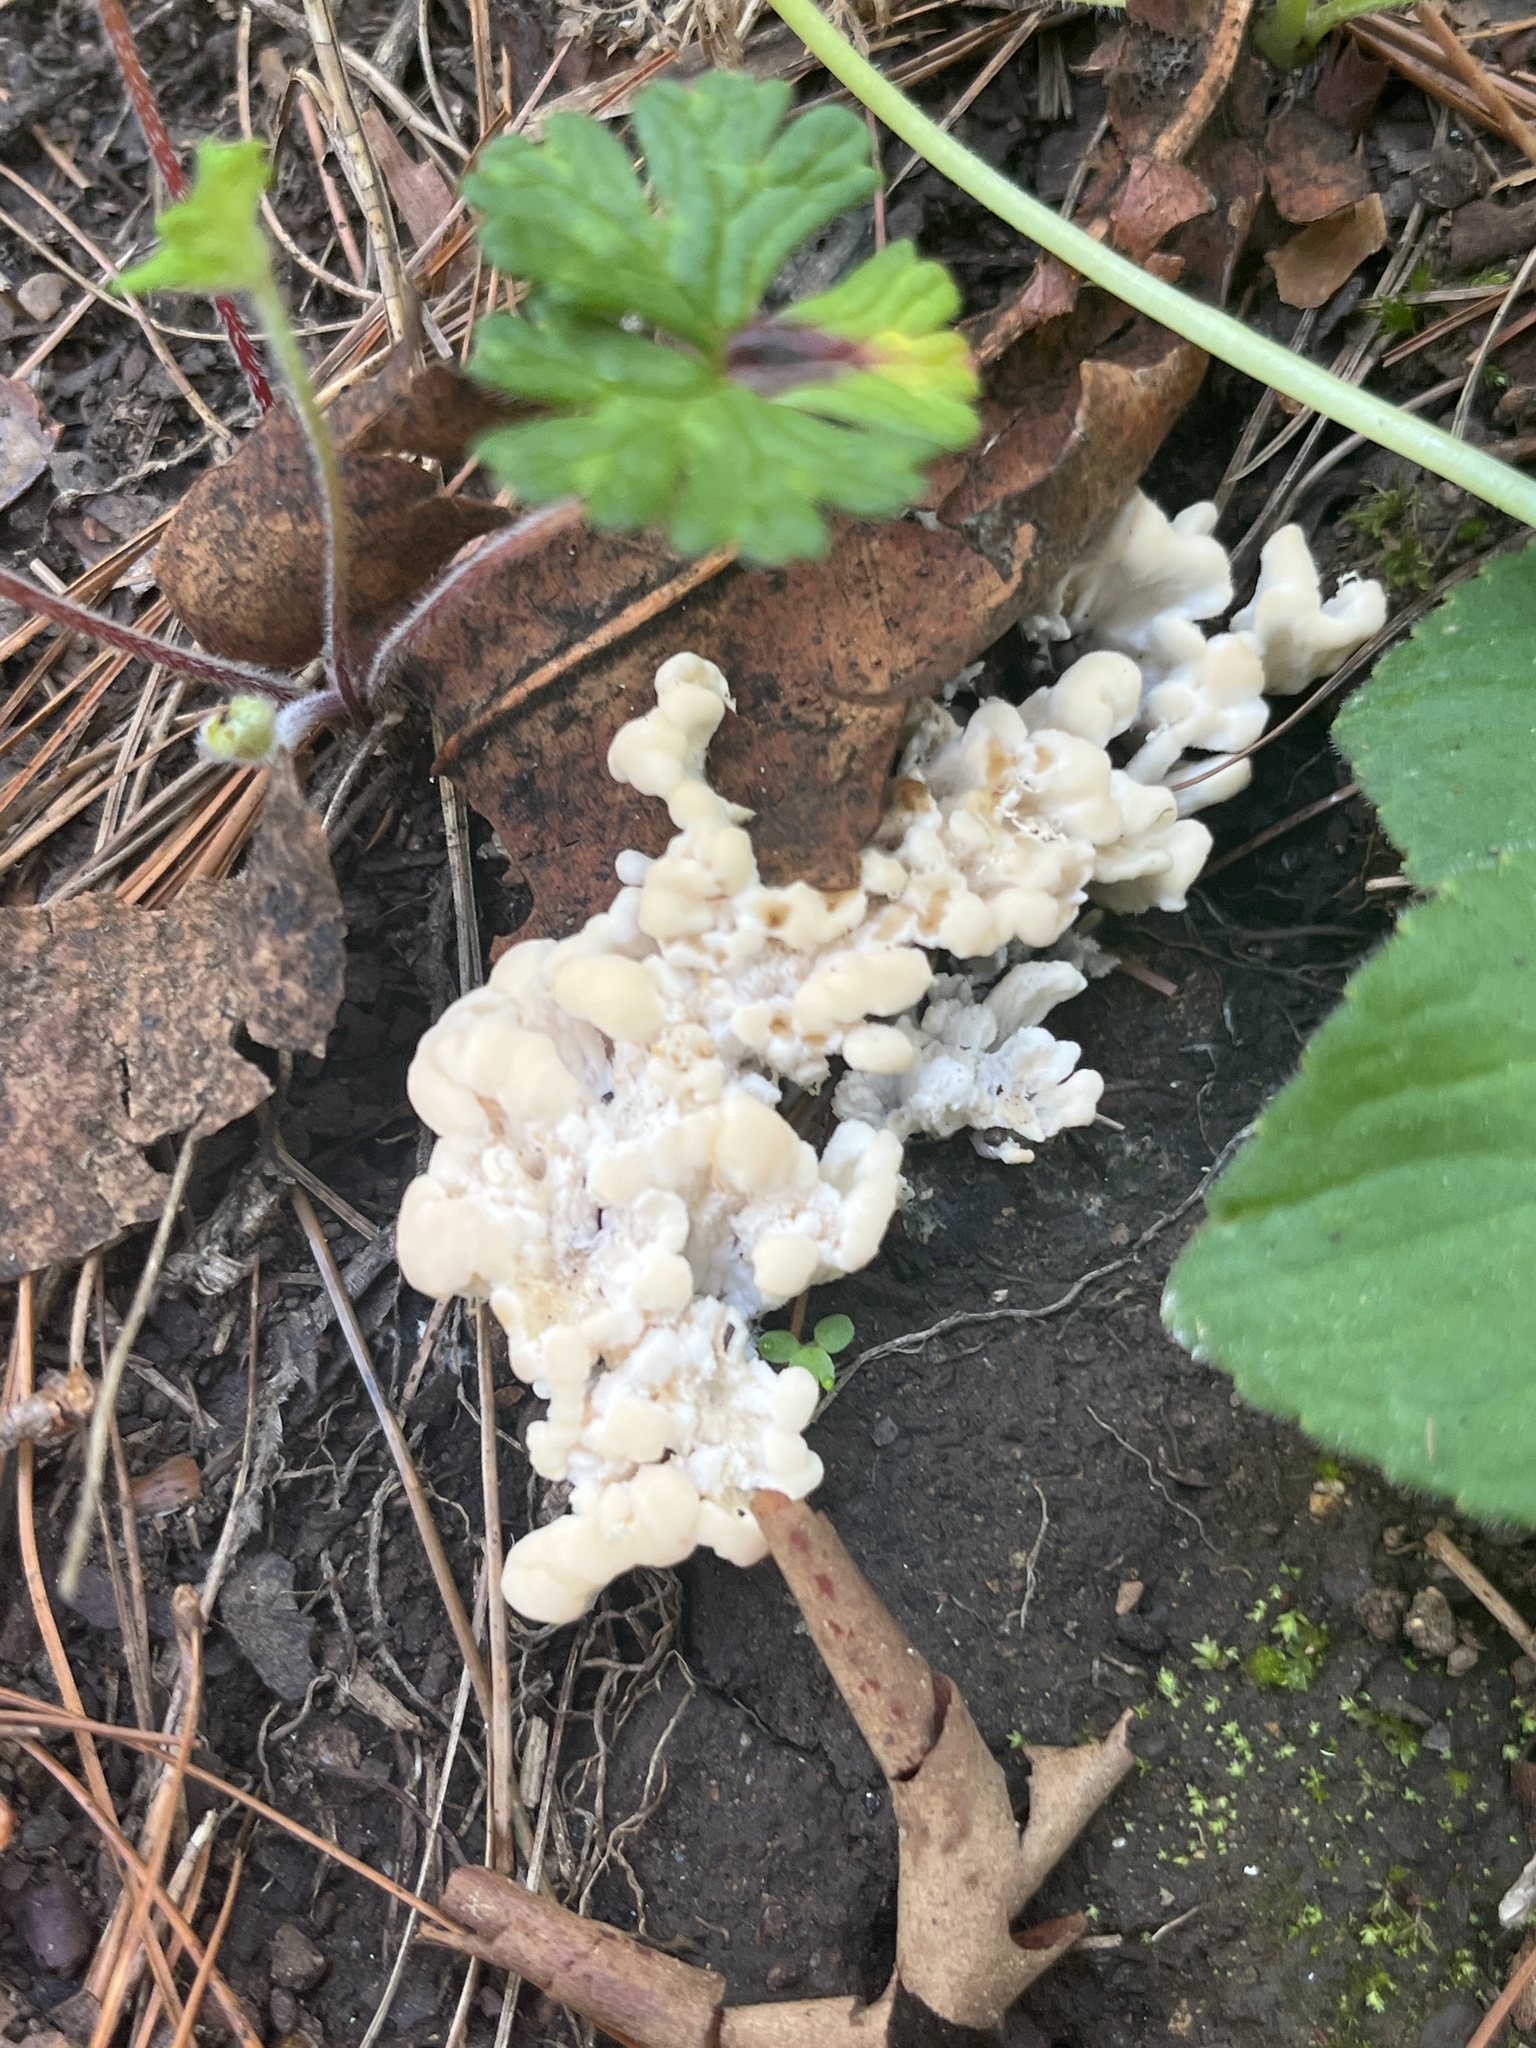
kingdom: Fungi
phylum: Basidiomycota
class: Agaricomycetes
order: Sebacinales
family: Sebacinaceae
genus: Sebacina
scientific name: Sebacina schweinitzii
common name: Jellied false coral fungus
